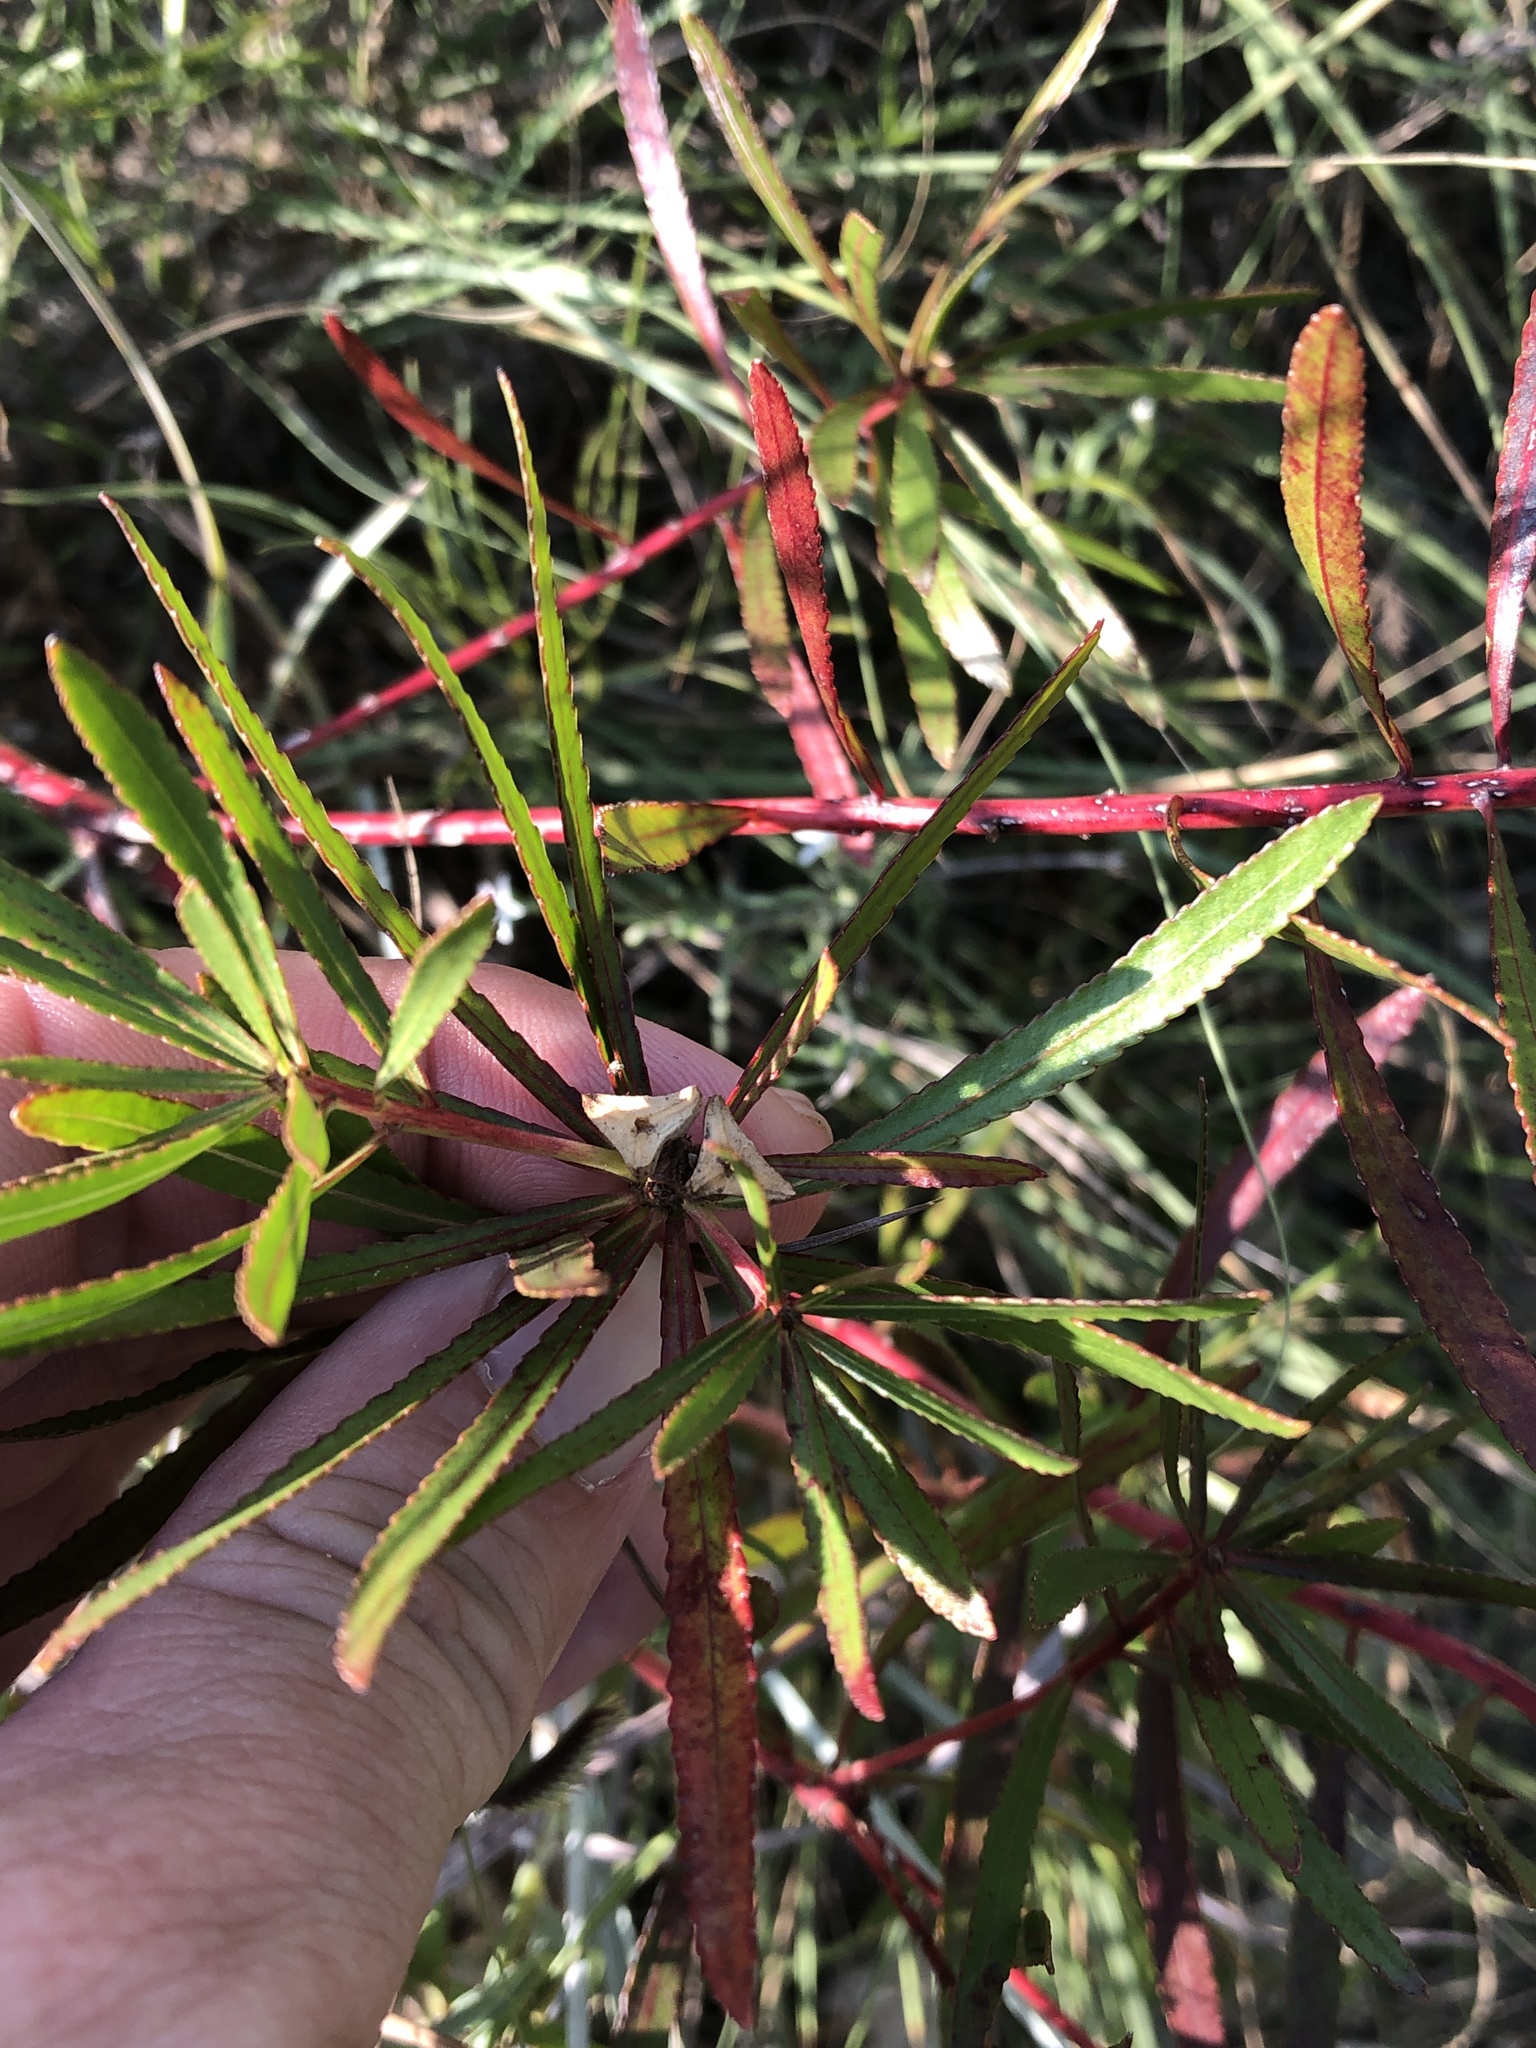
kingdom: Plantae
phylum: Tracheophyta
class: Magnoliopsida
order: Malpighiales
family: Euphorbiaceae
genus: Stillingia
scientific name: Stillingia texana
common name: Texas stillingia
